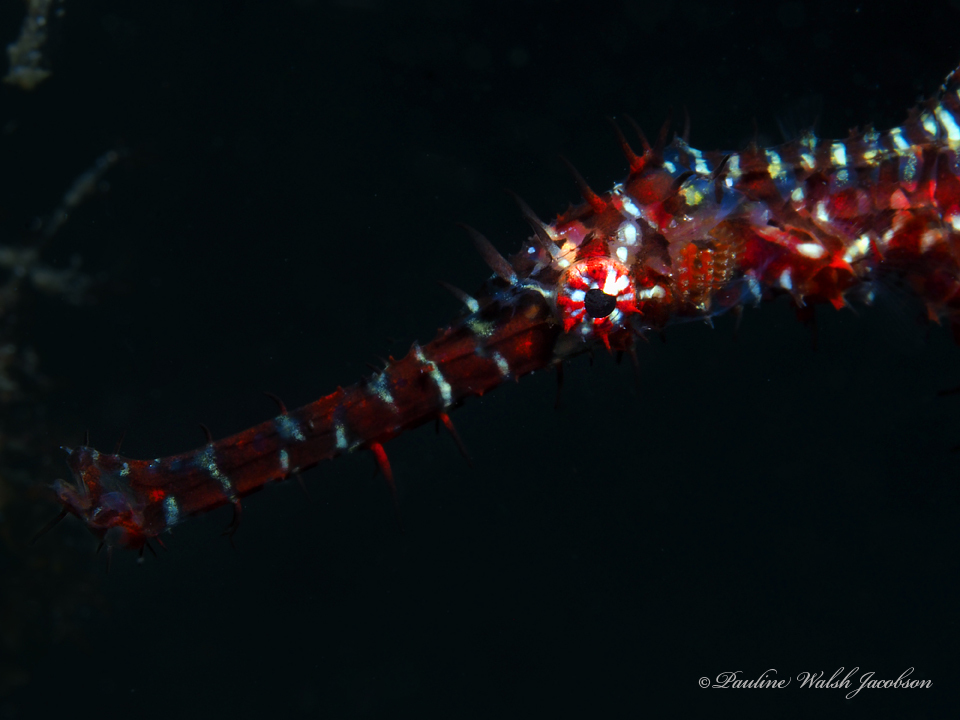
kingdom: Animalia
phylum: Chordata
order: Syngnathiformes
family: Solenostomidae
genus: Solenostomus
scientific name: Solenostomus paradoxus
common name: Ghost pipefish
